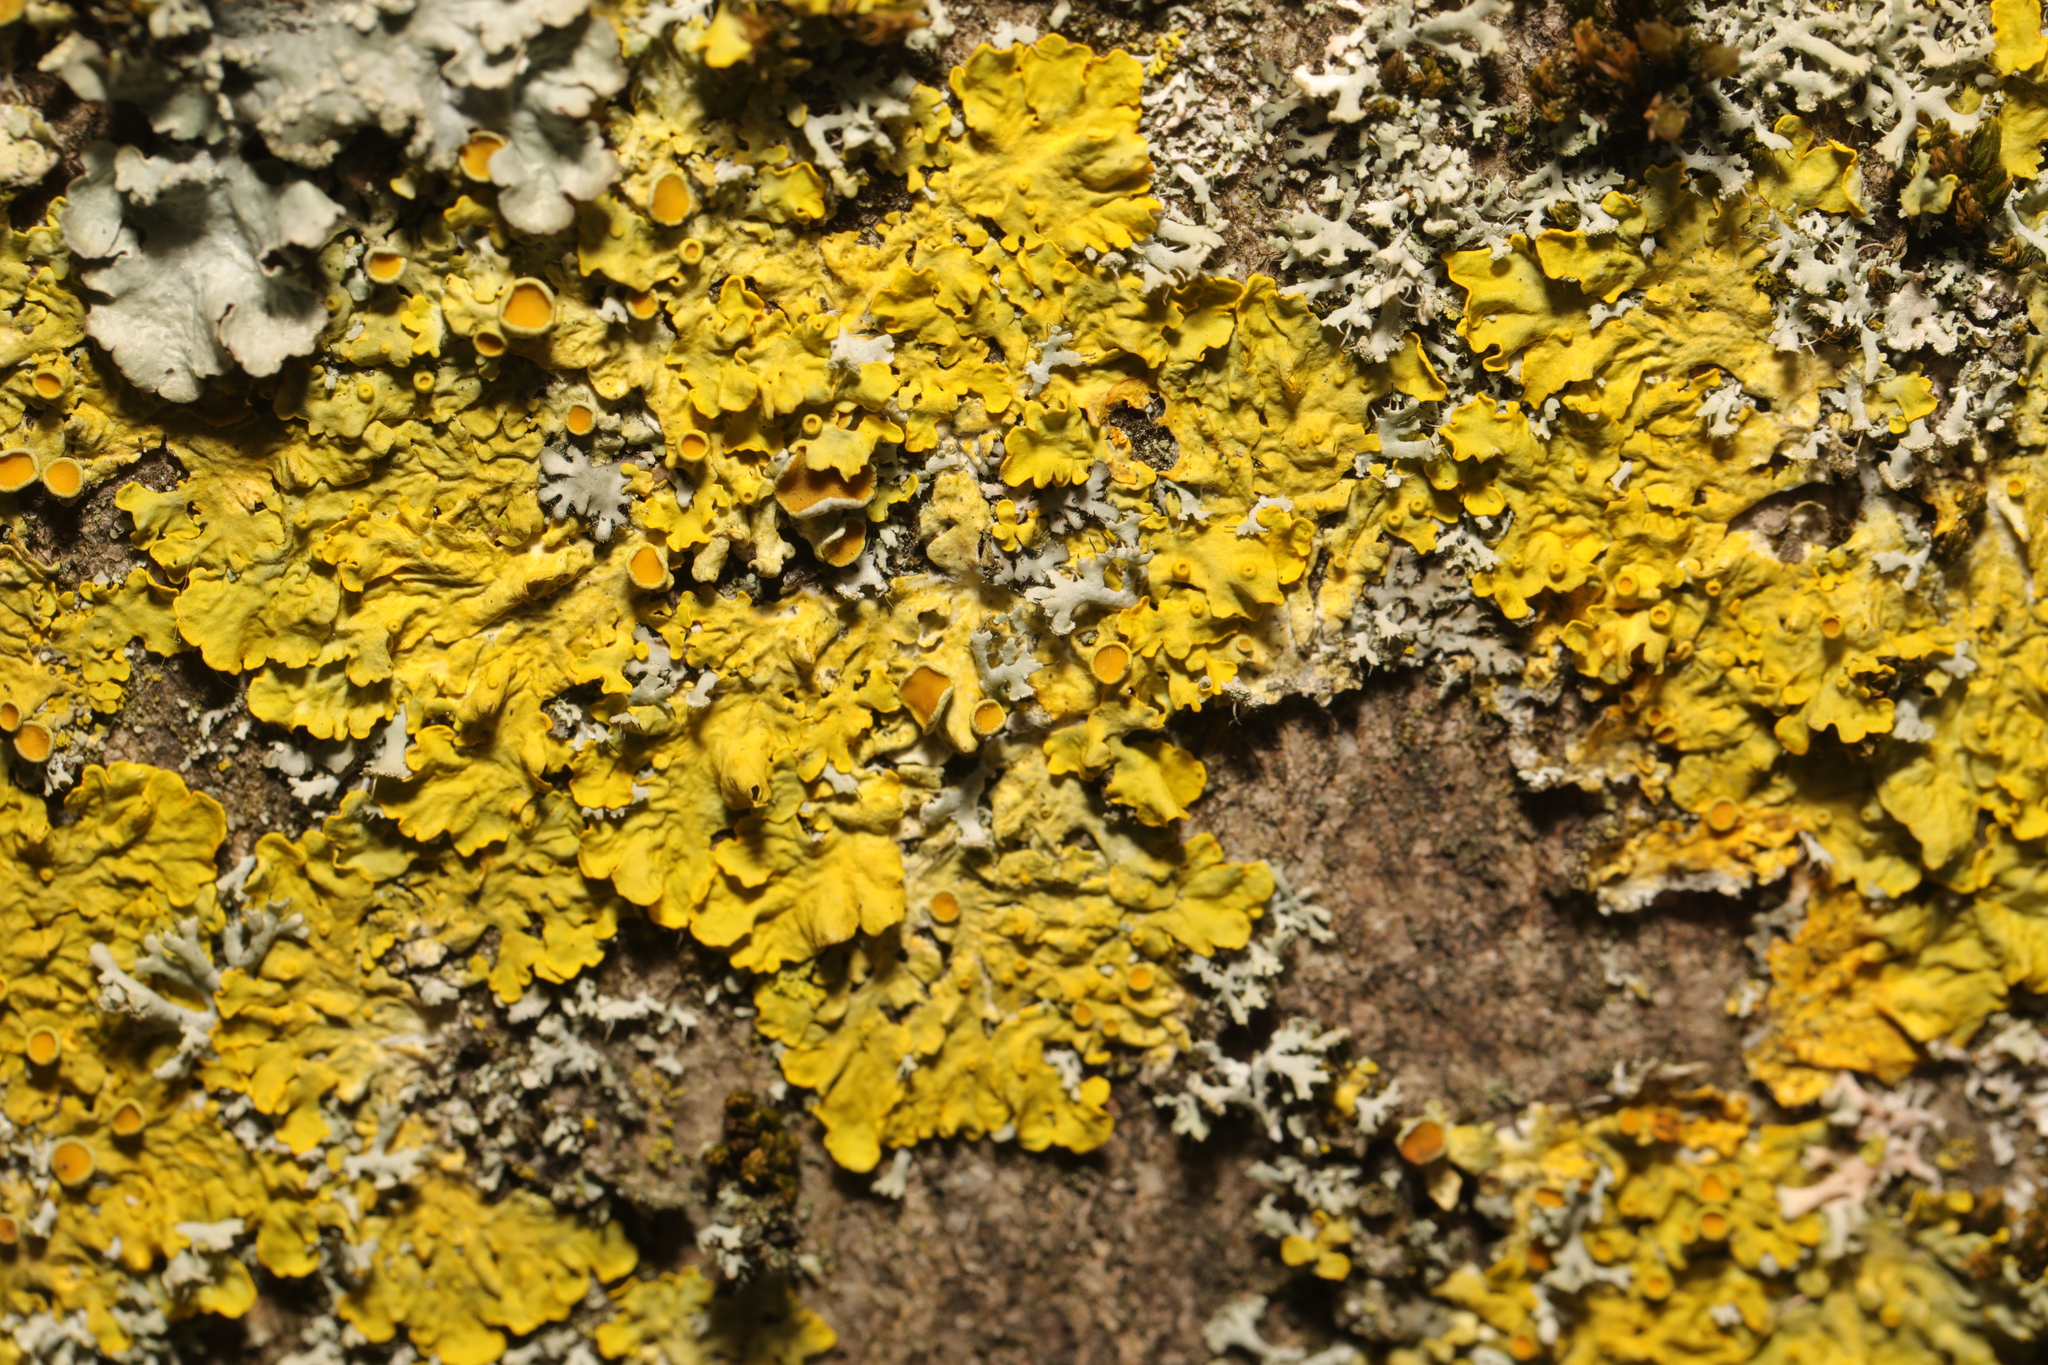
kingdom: Fungi
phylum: Ascomycota
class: Lecanoromycetes
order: Teloschistales
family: Teloschistaceae
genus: Xanthoria
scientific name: Xanthoria parietina
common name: Common orange lichen
